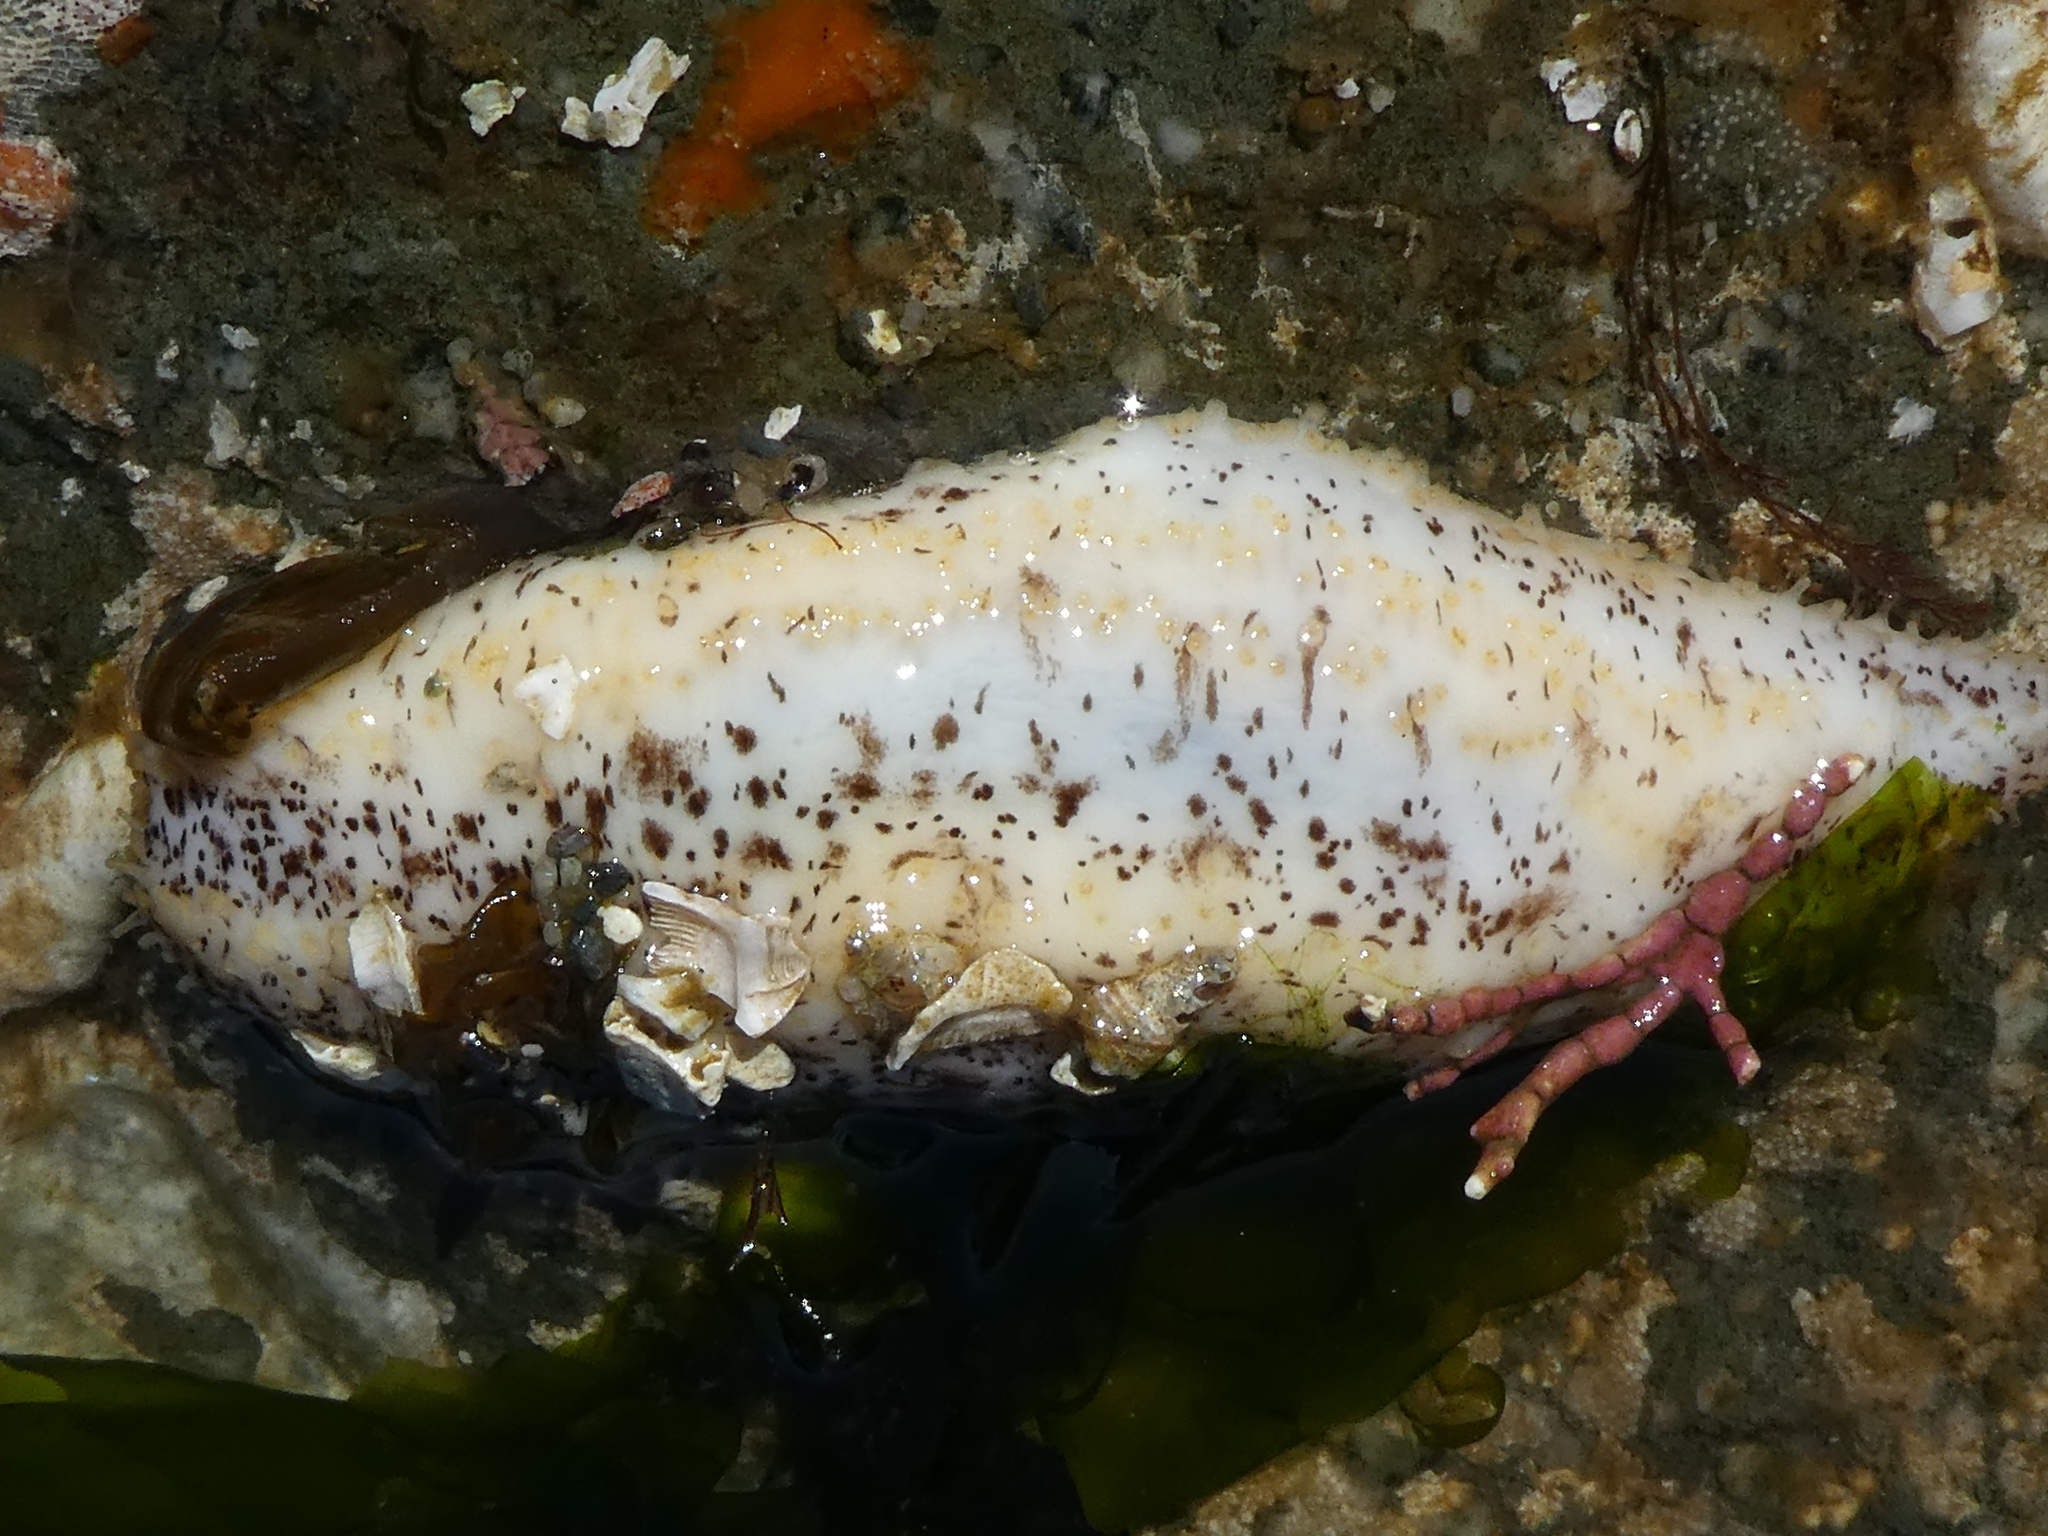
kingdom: Animalia
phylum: Echinodermata
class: Holothuroidea
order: Dendrochirotida
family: Cucumariidae
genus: Cucumaria
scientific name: Cucumaria piperata
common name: Peppered sea cucumber
